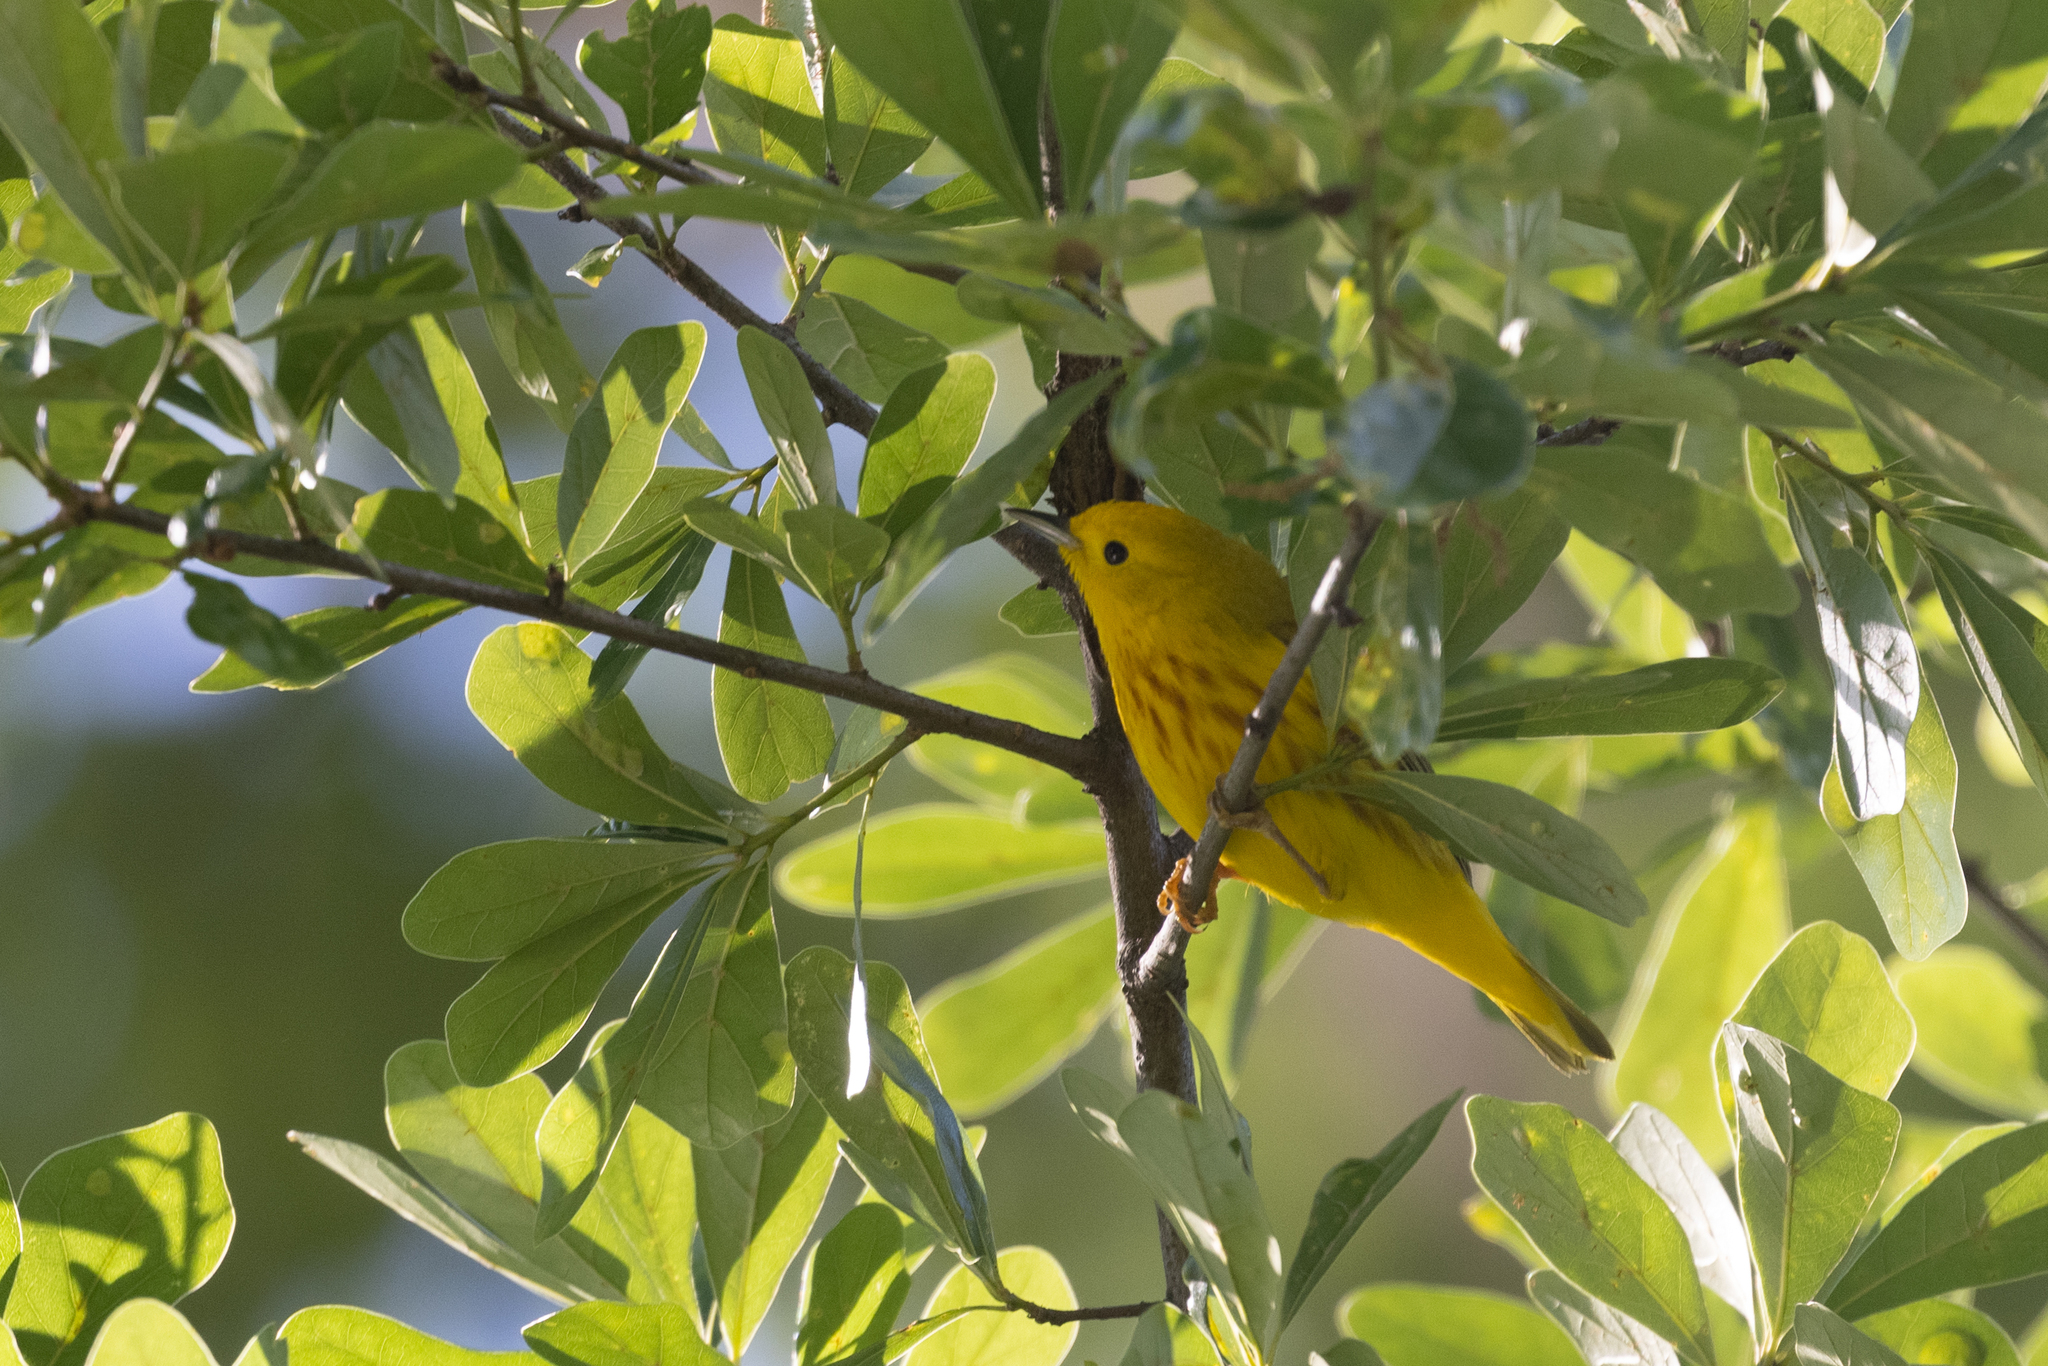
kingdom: Animalia
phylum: Chordata
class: Aves
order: Passeriformes
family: Parulidae
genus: Setophaga
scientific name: Setophaga petechia
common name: Yellow warbler
